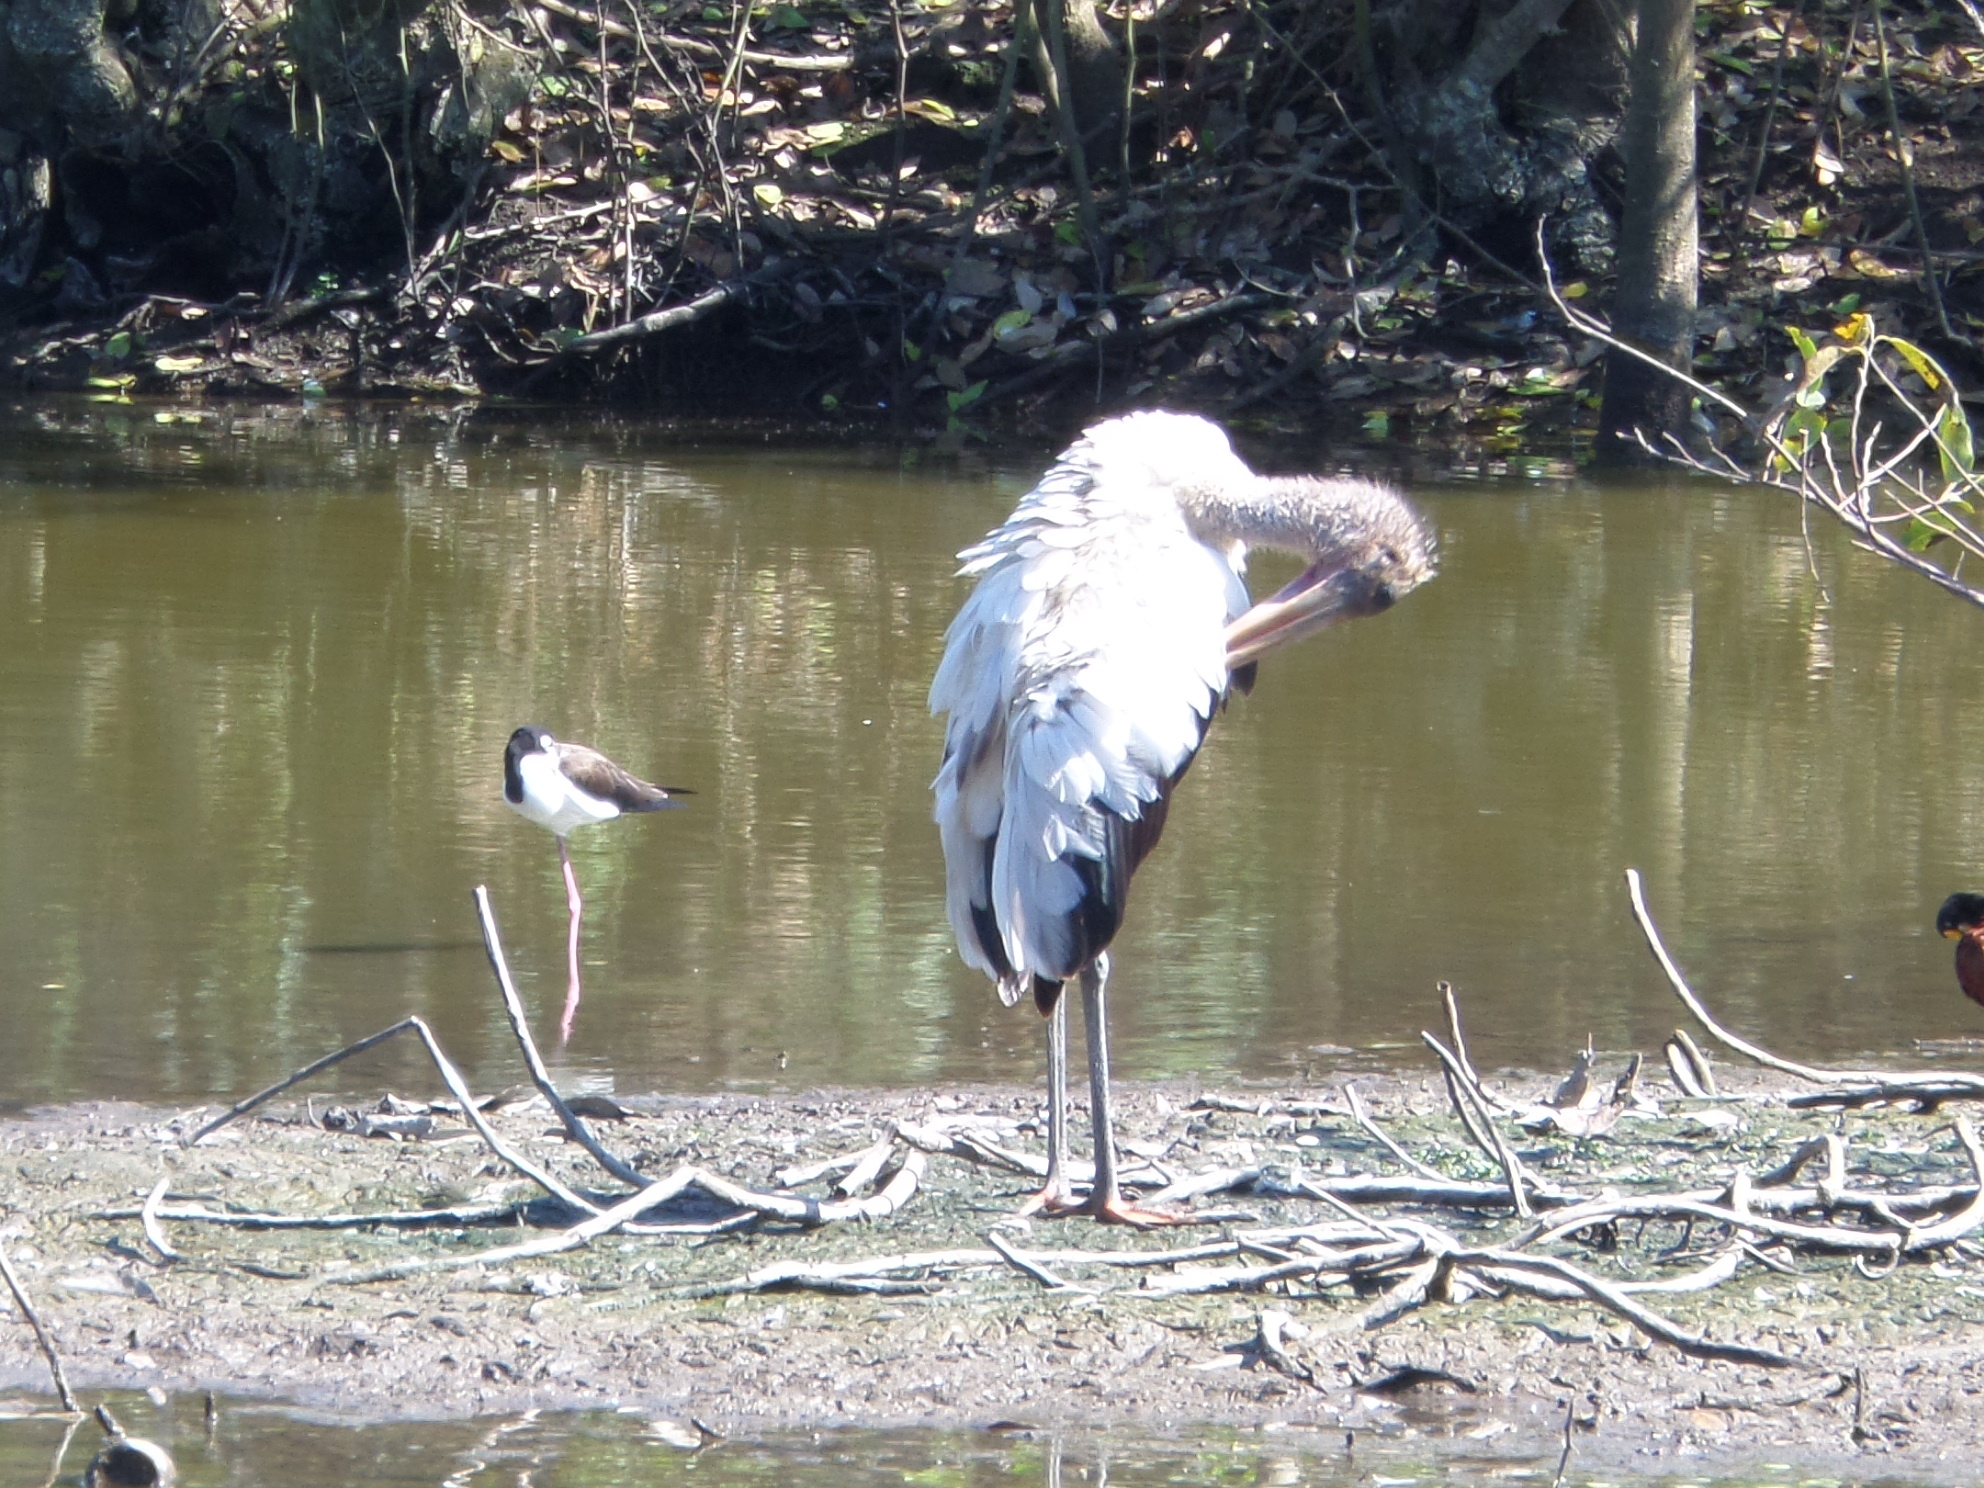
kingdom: Animalia
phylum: Chordata
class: Aves
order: Ciconiiformes
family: Ciconiidae
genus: Mycteria
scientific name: Mycteria americana
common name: Wood stork
